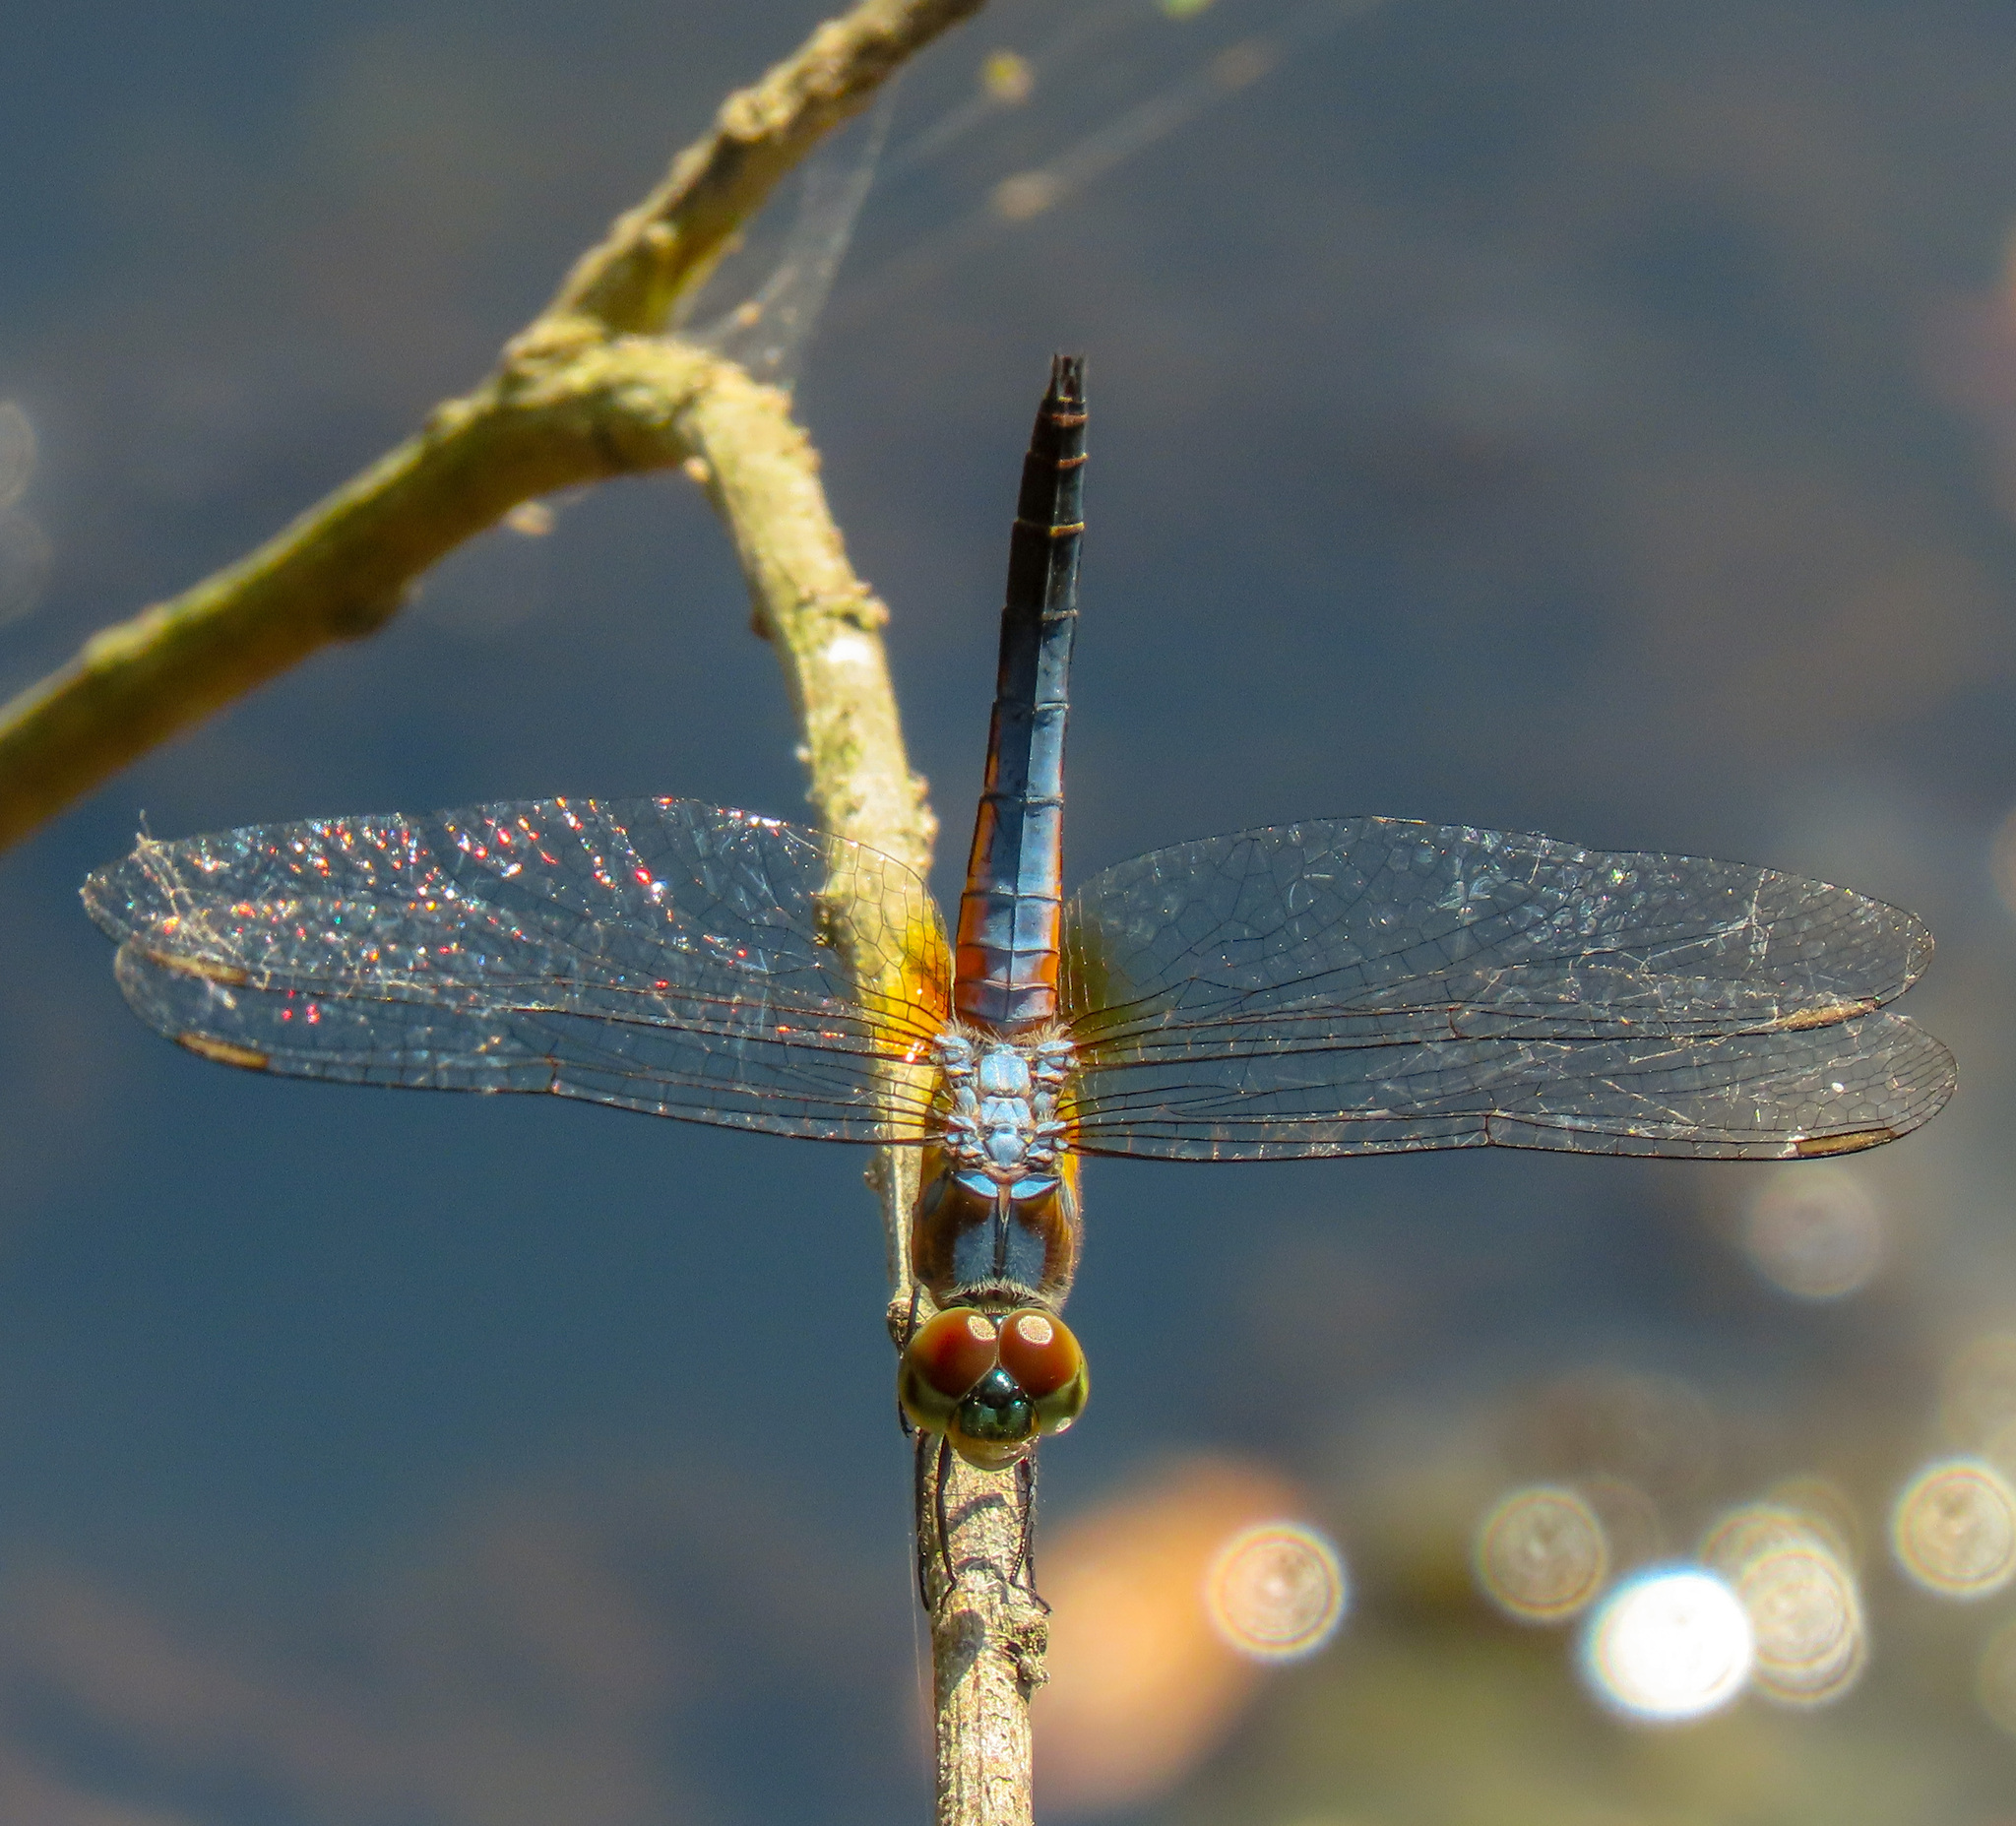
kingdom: Animalia
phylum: Arthropoda
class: Insecta
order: Odonata
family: Libellulidae
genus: Brachydiplax
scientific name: Brachydiplax chalybea
